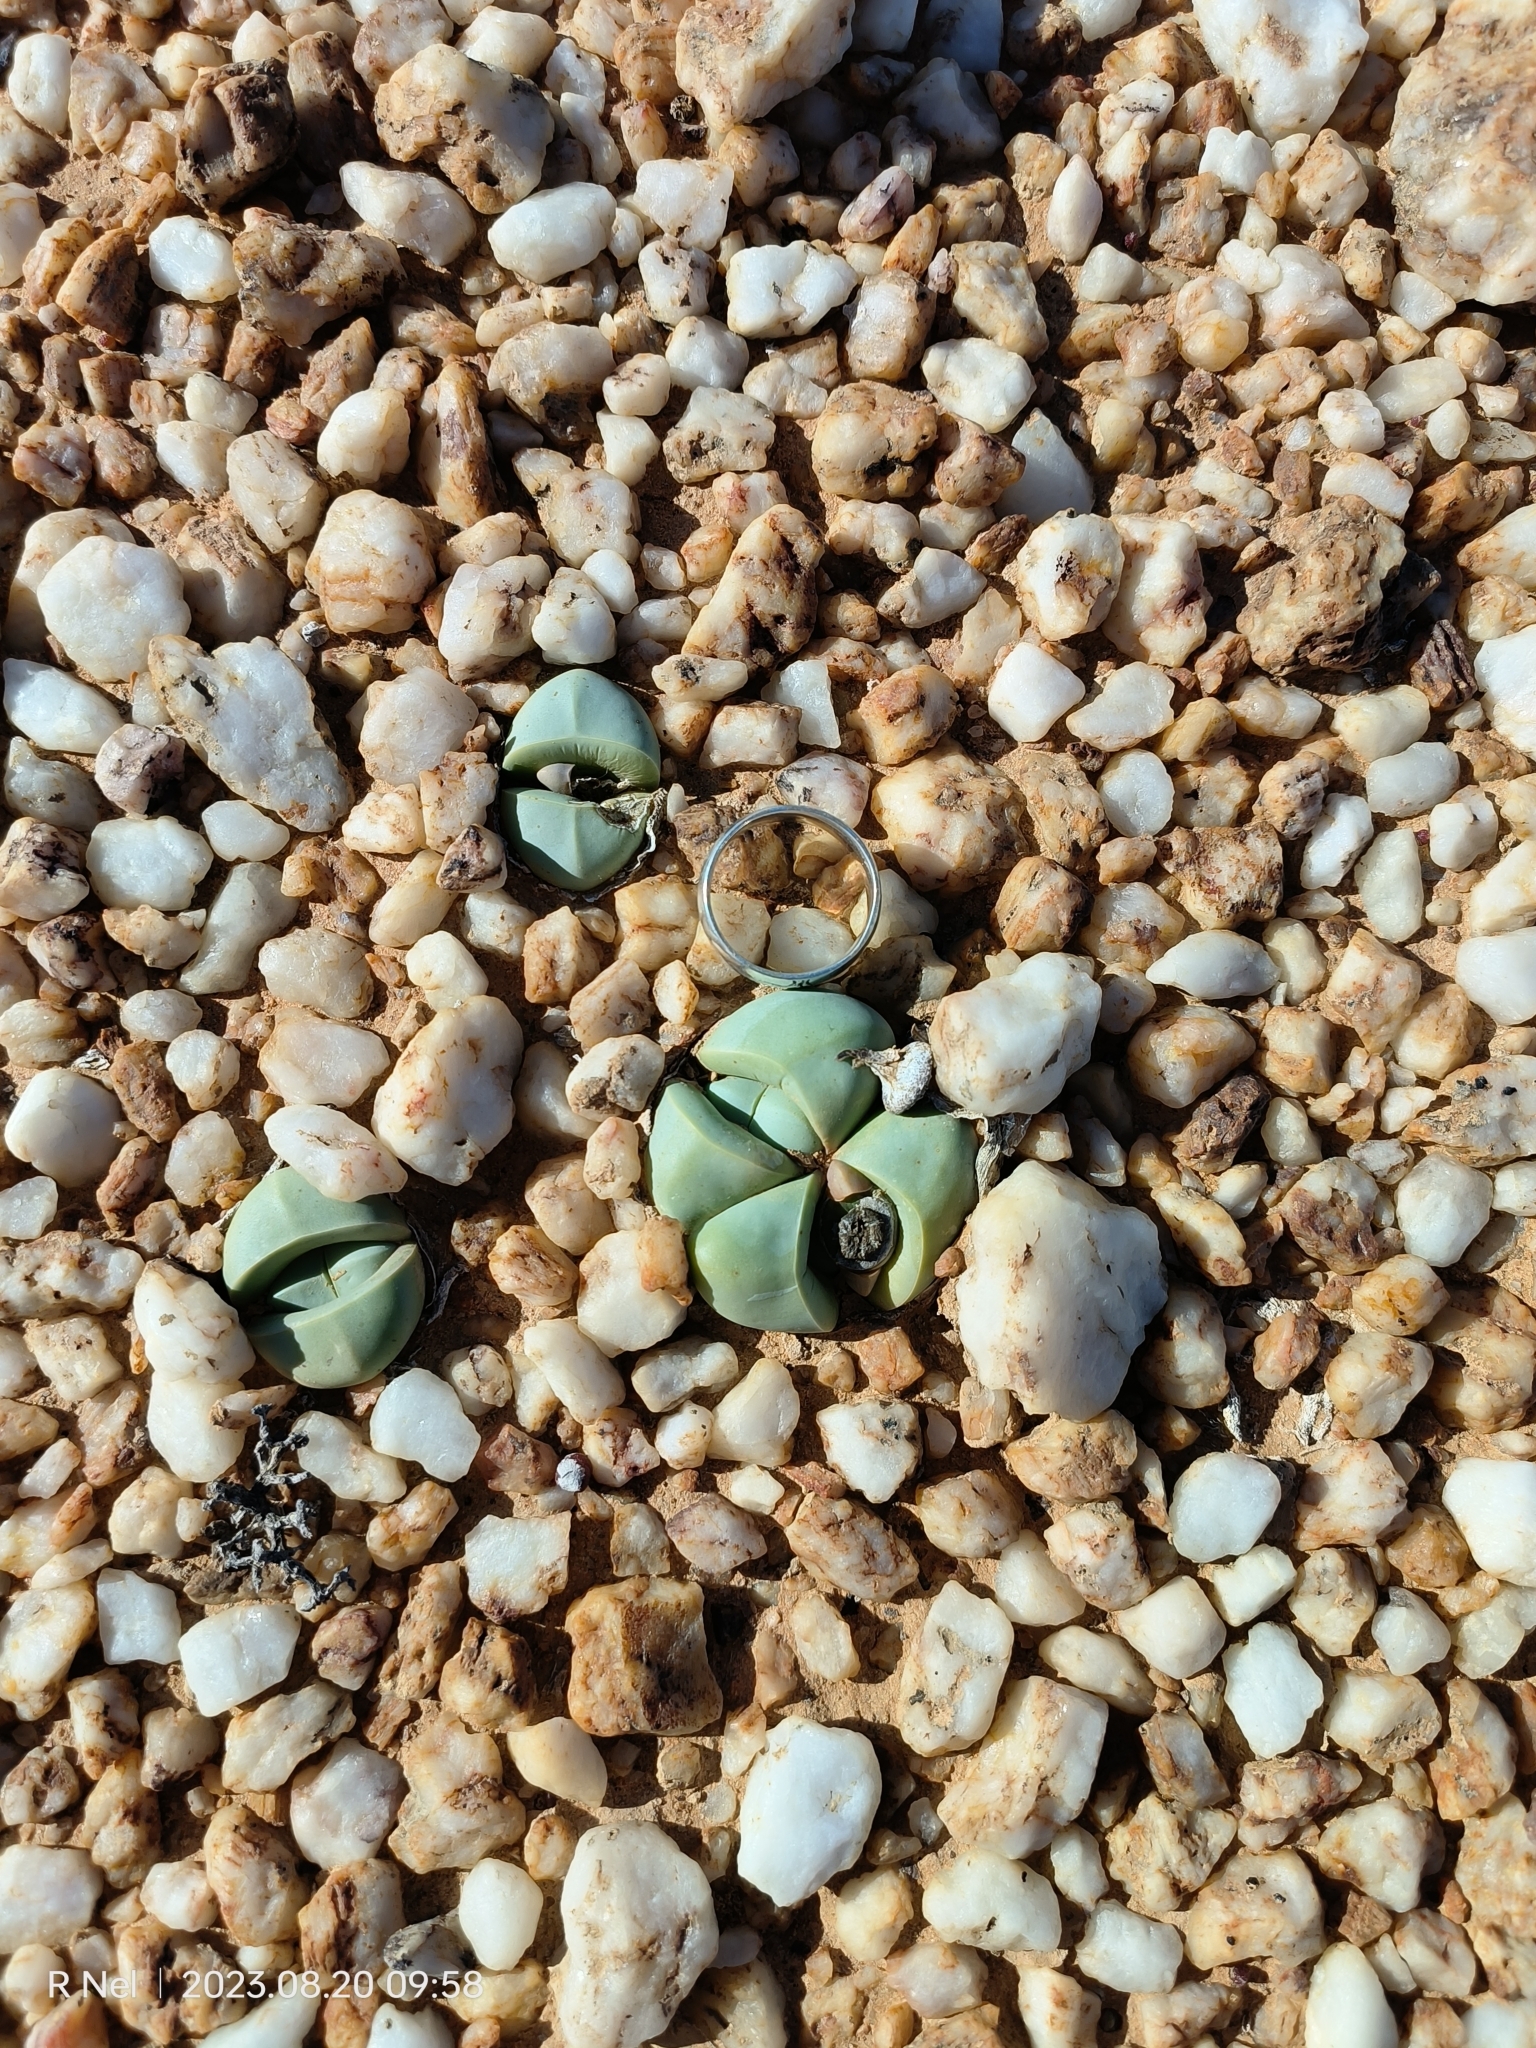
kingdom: Plantae
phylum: Tracheophyta
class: Magnoliopsida
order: Caryophyllales
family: Aizoaceae
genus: Argyroderma
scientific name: Argyroderma delaetii
